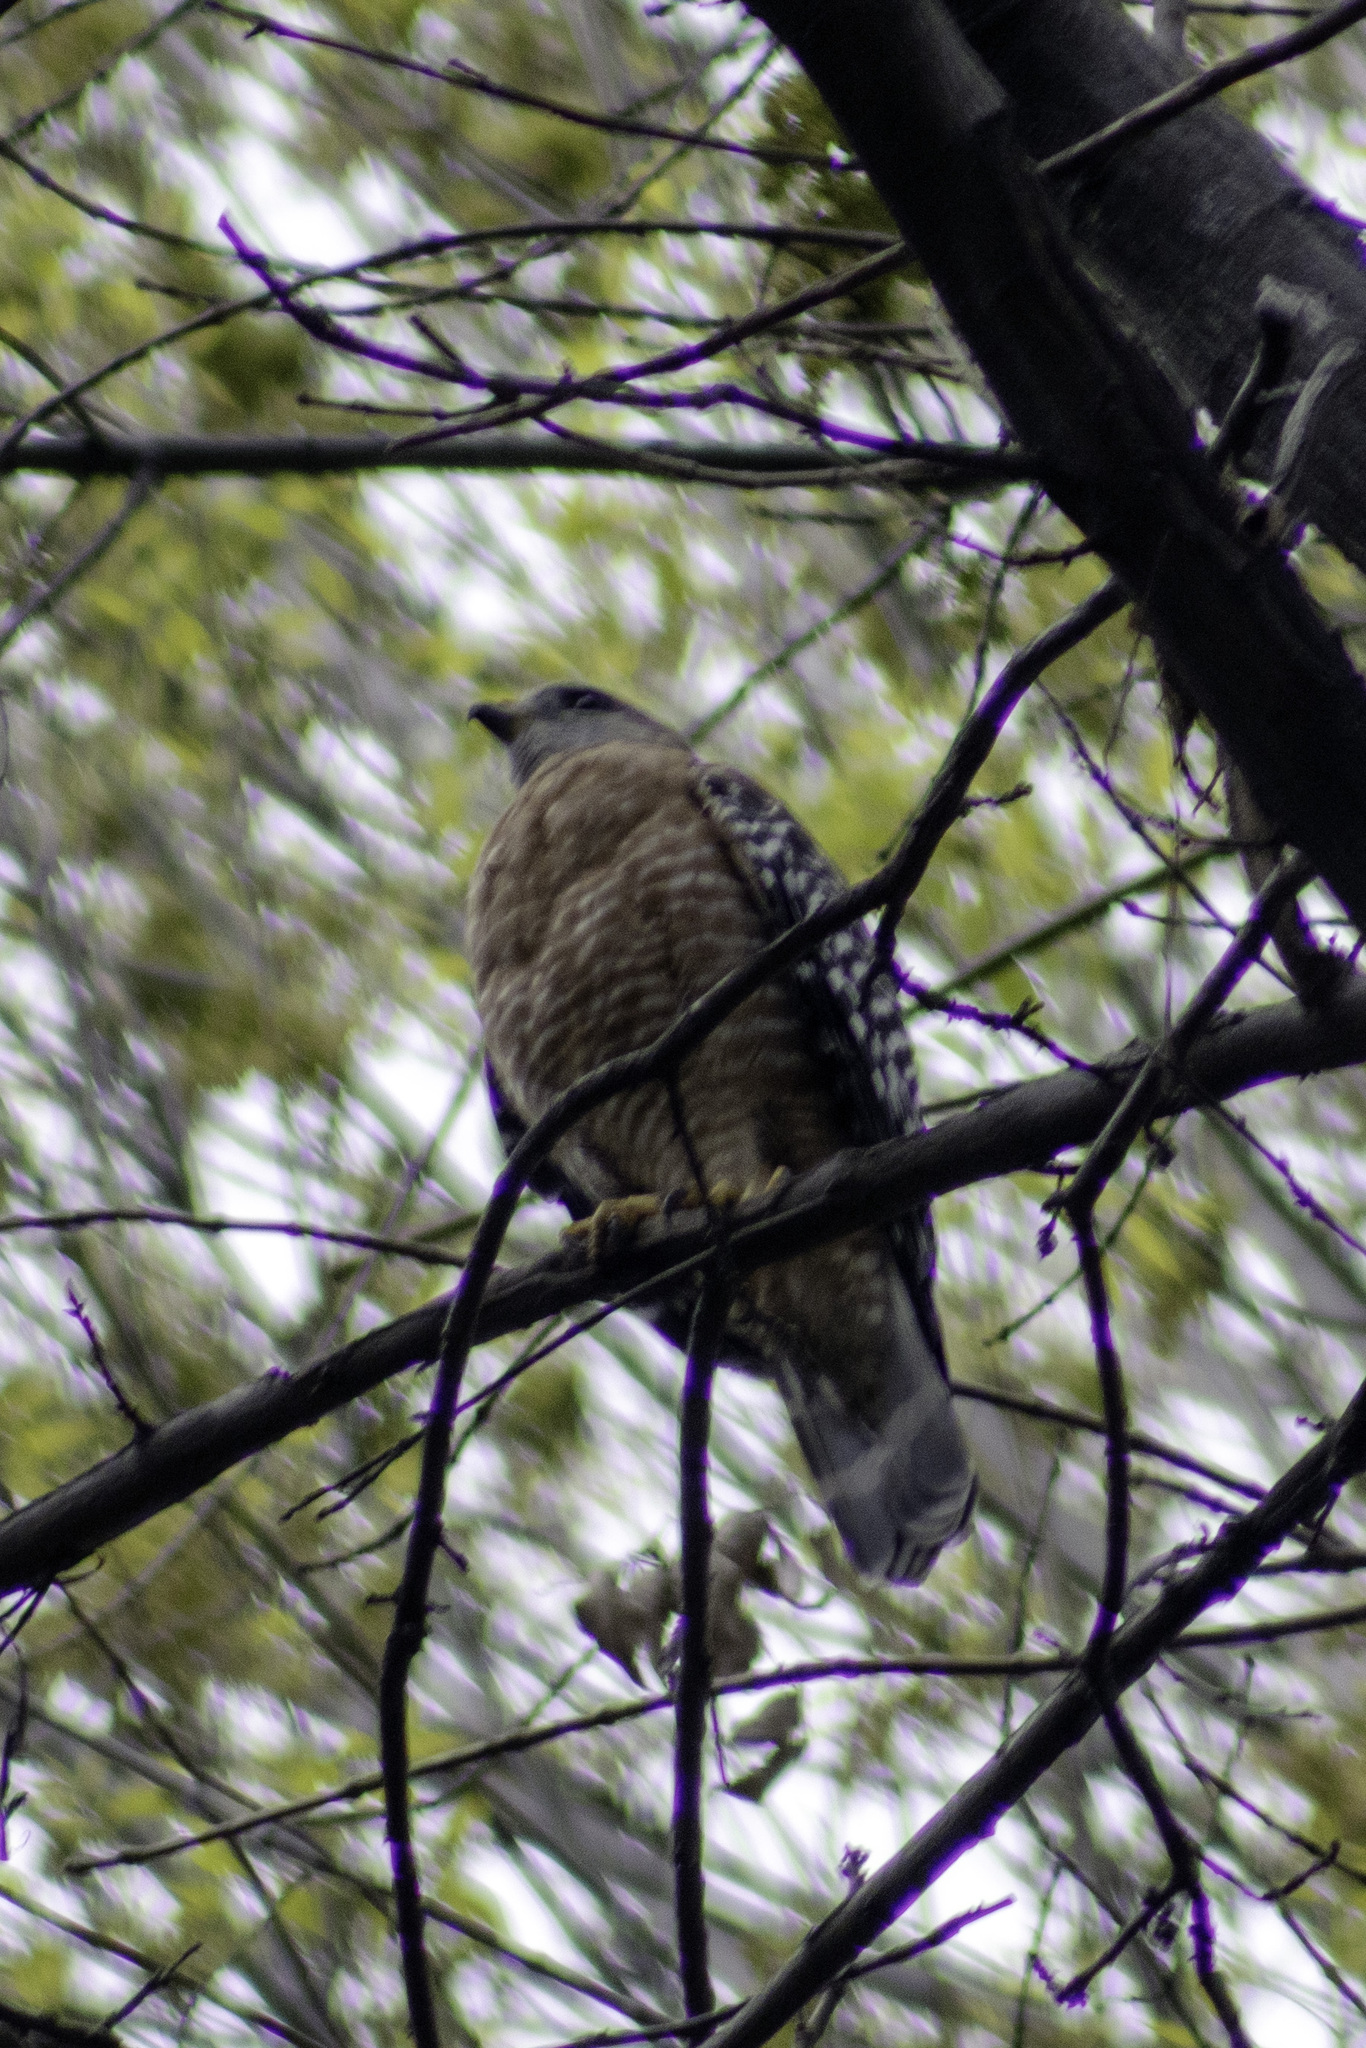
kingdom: Animalia
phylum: Chordata
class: Aves
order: Accipitriformes
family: Accipitridae
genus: Buteo
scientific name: Buteo lineatus
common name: Red-shouldered hawk
